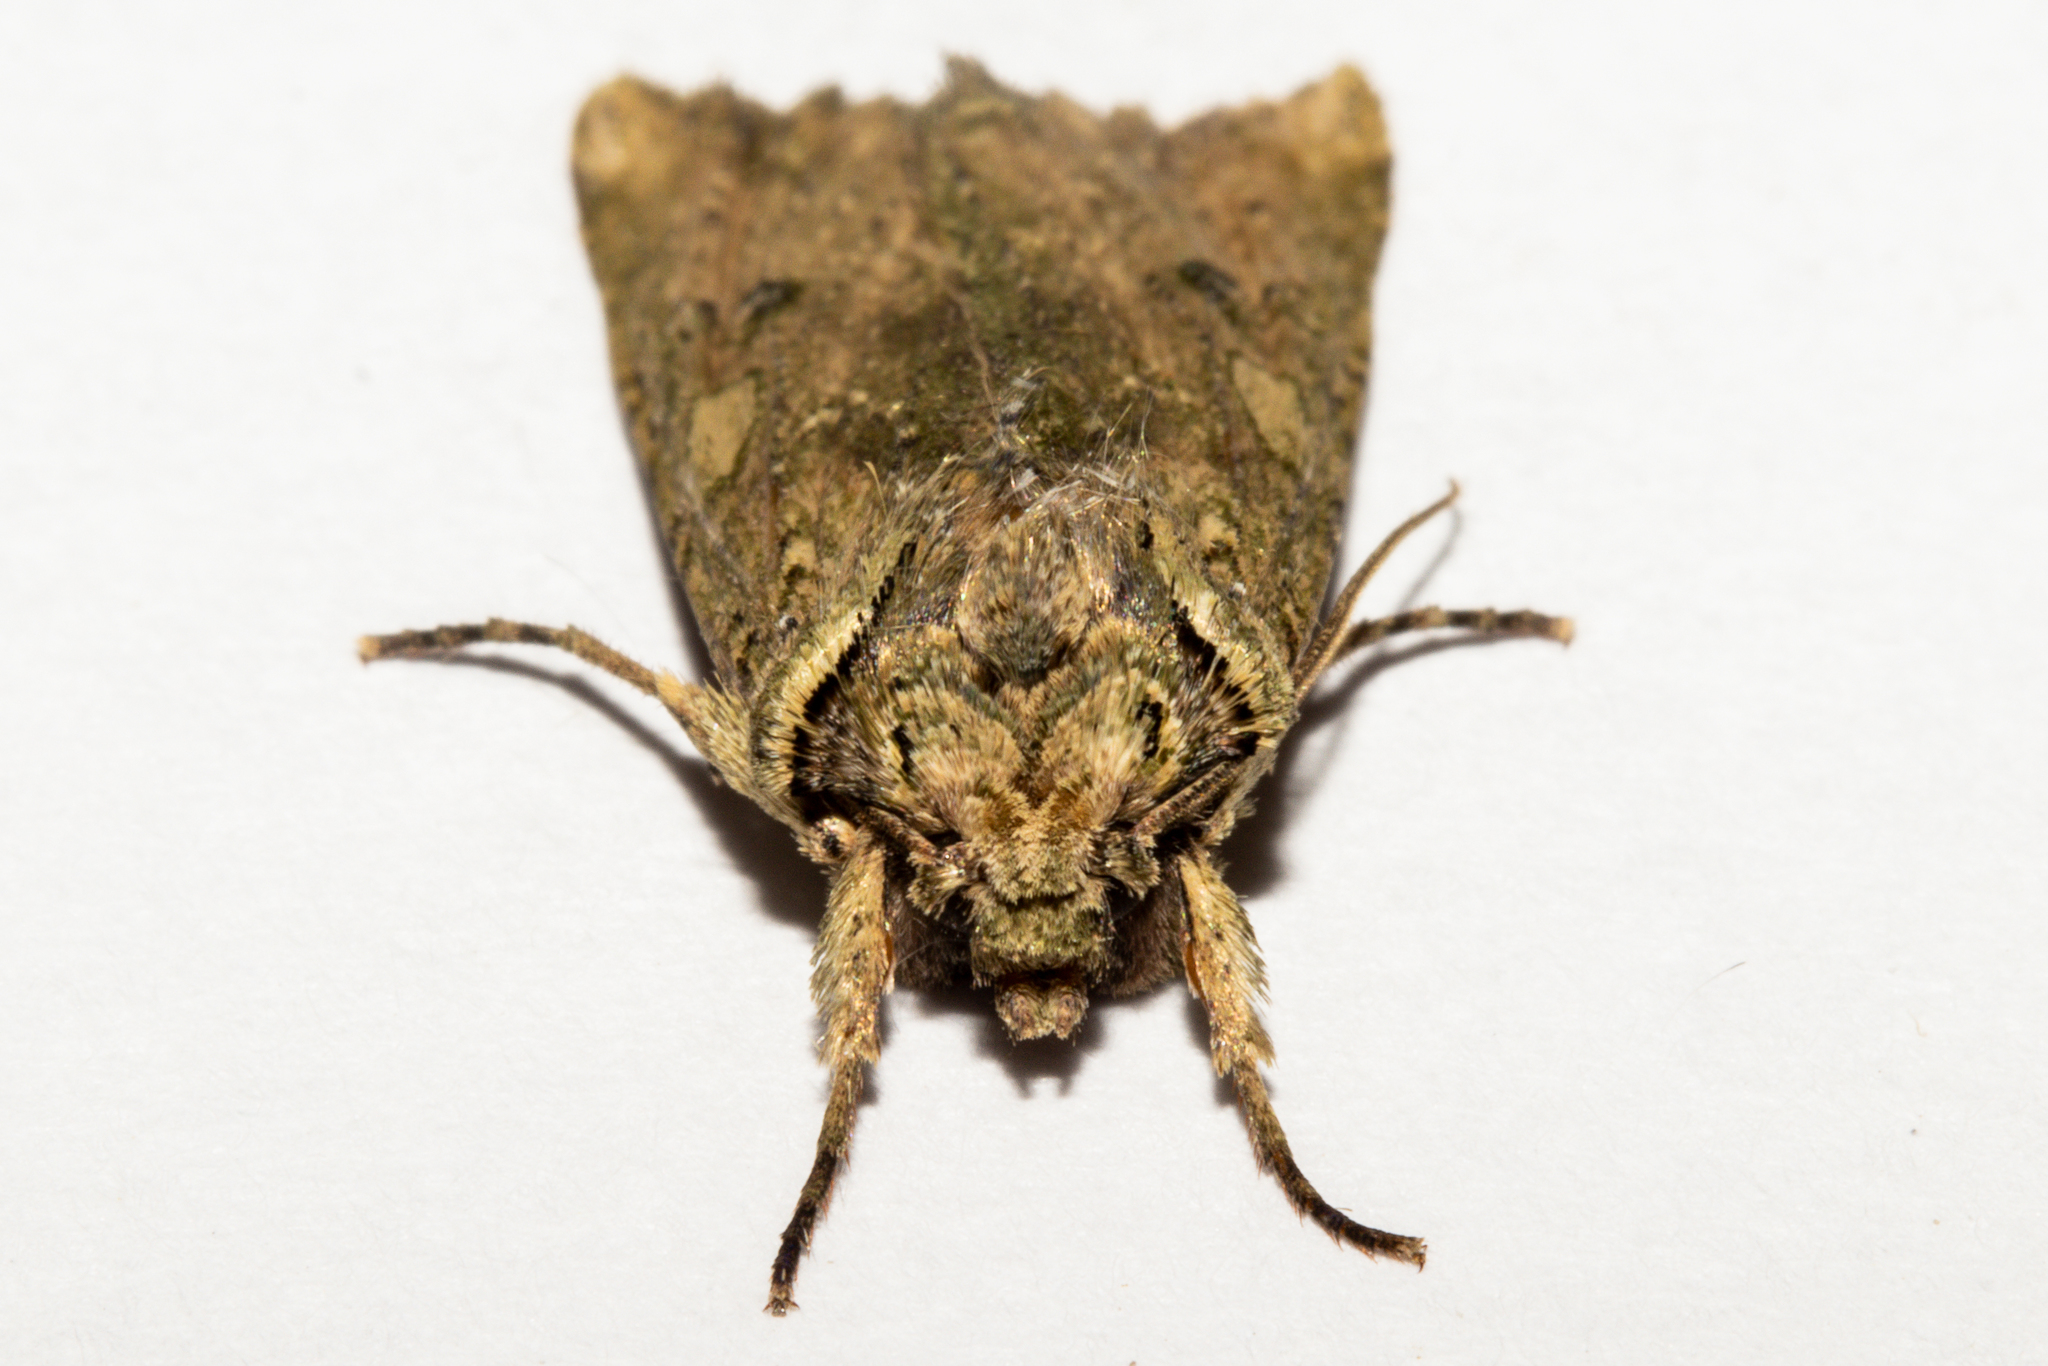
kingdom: Animalia
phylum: Arthropoda
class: Insecta
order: Lepidoptera
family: Noctuidae
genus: Meterana
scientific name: Meterana coeleno
